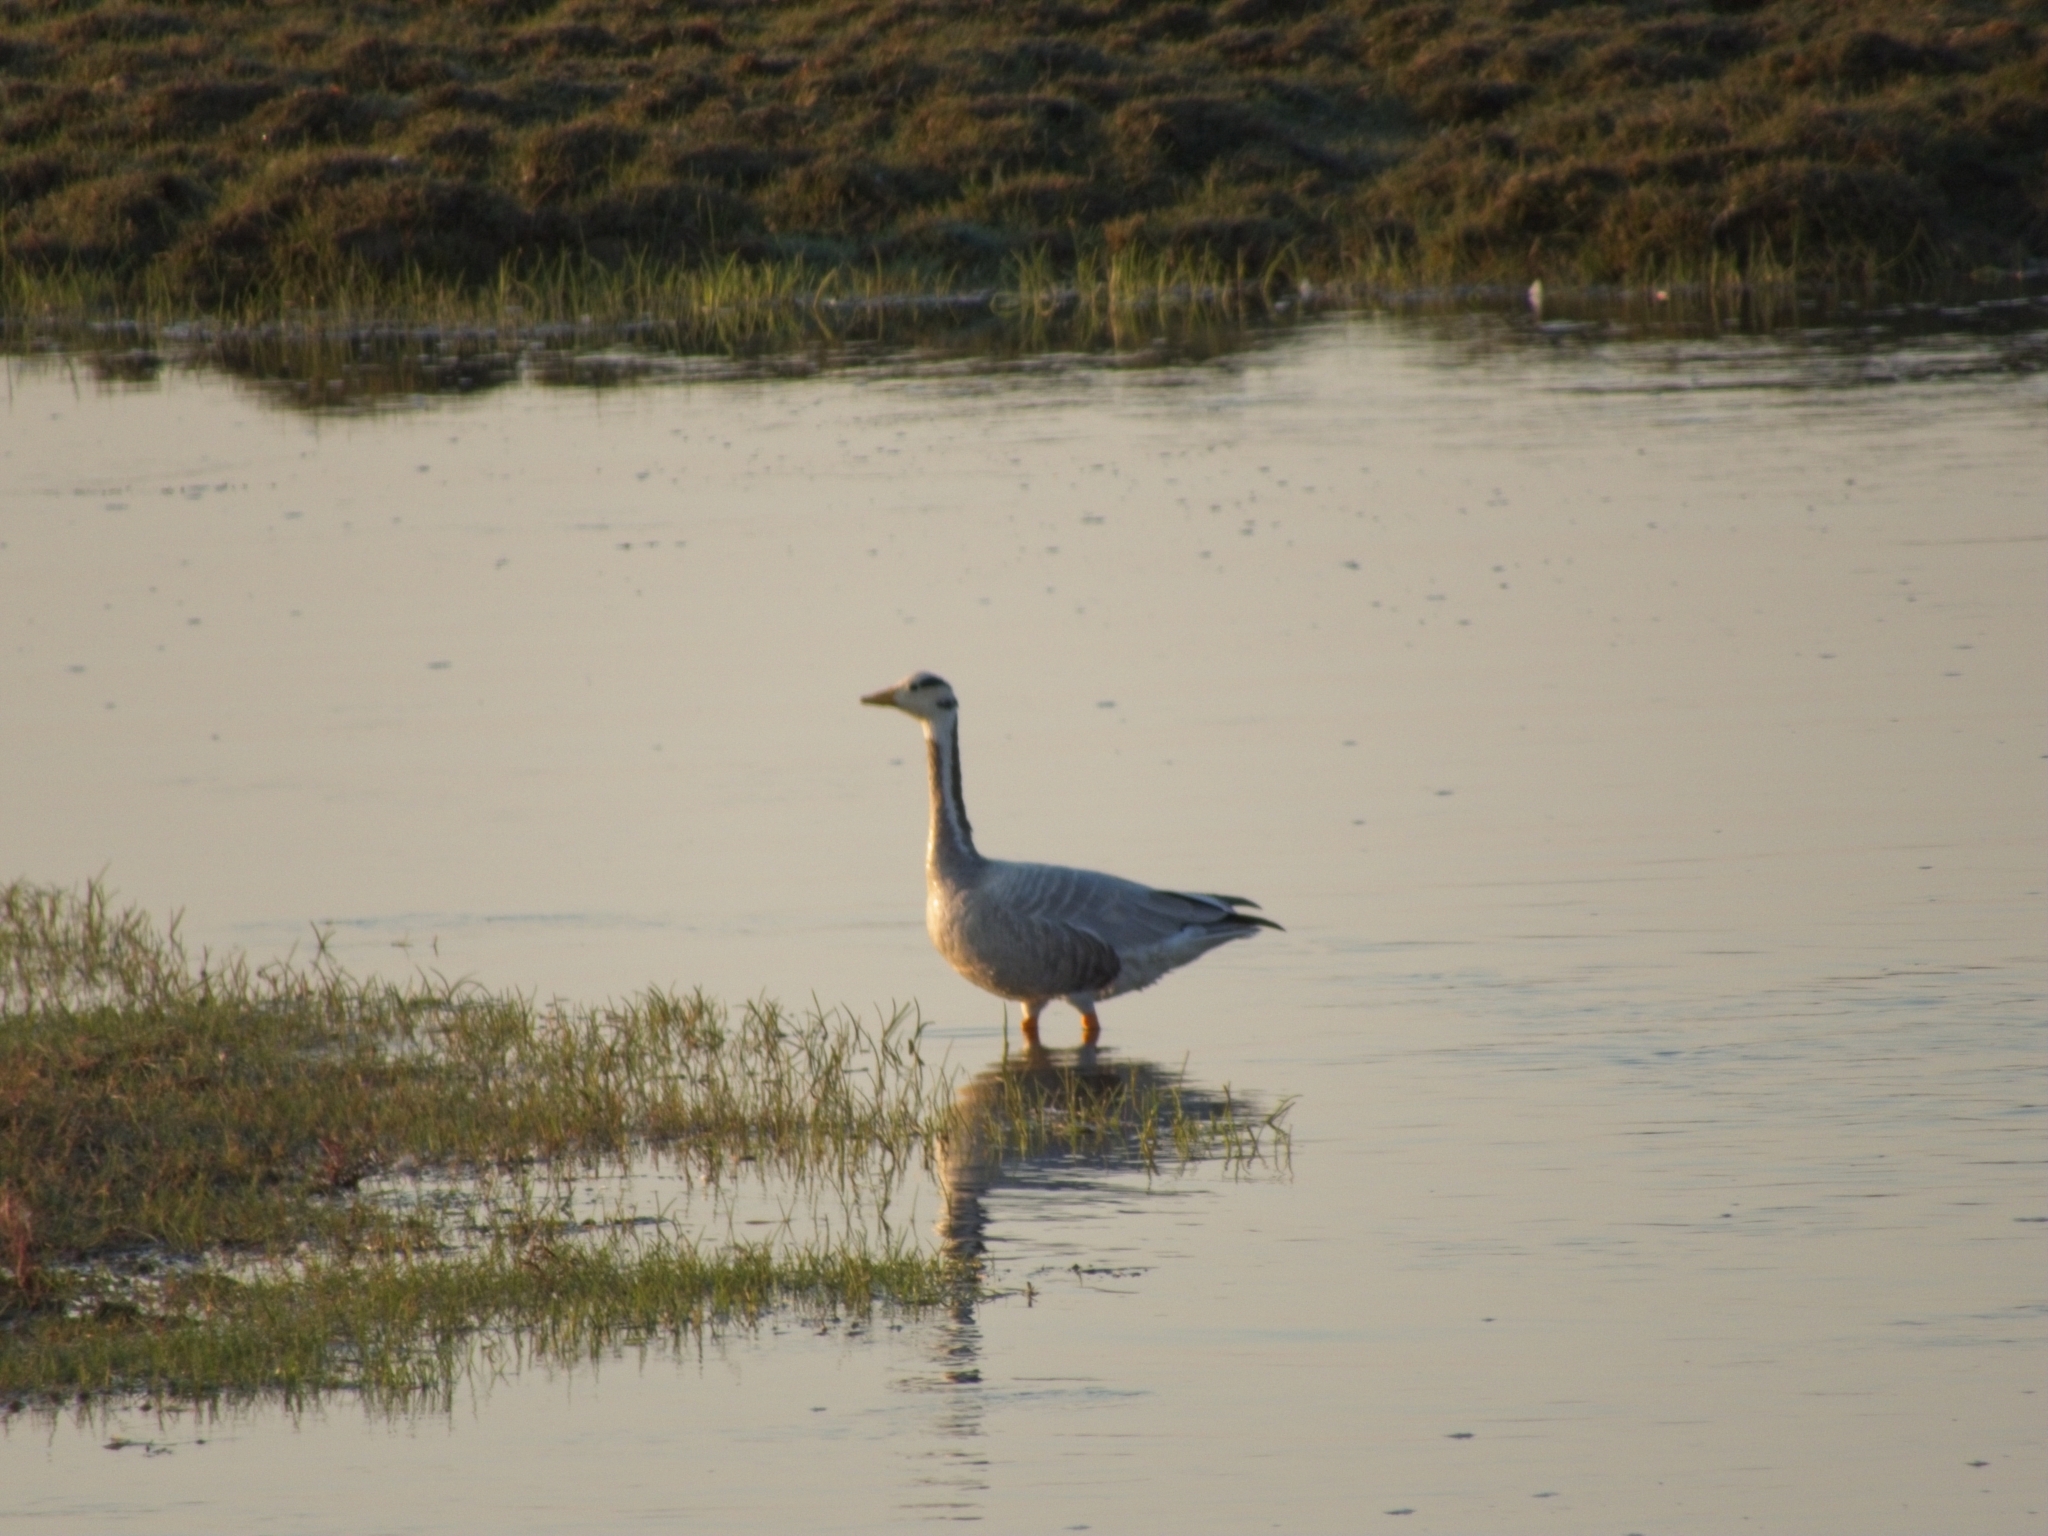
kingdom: Animalia
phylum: Chordata
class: Aves
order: Anseriformes
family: Anatidae
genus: Anser
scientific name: Anser indicus
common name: Bar-headed goose
